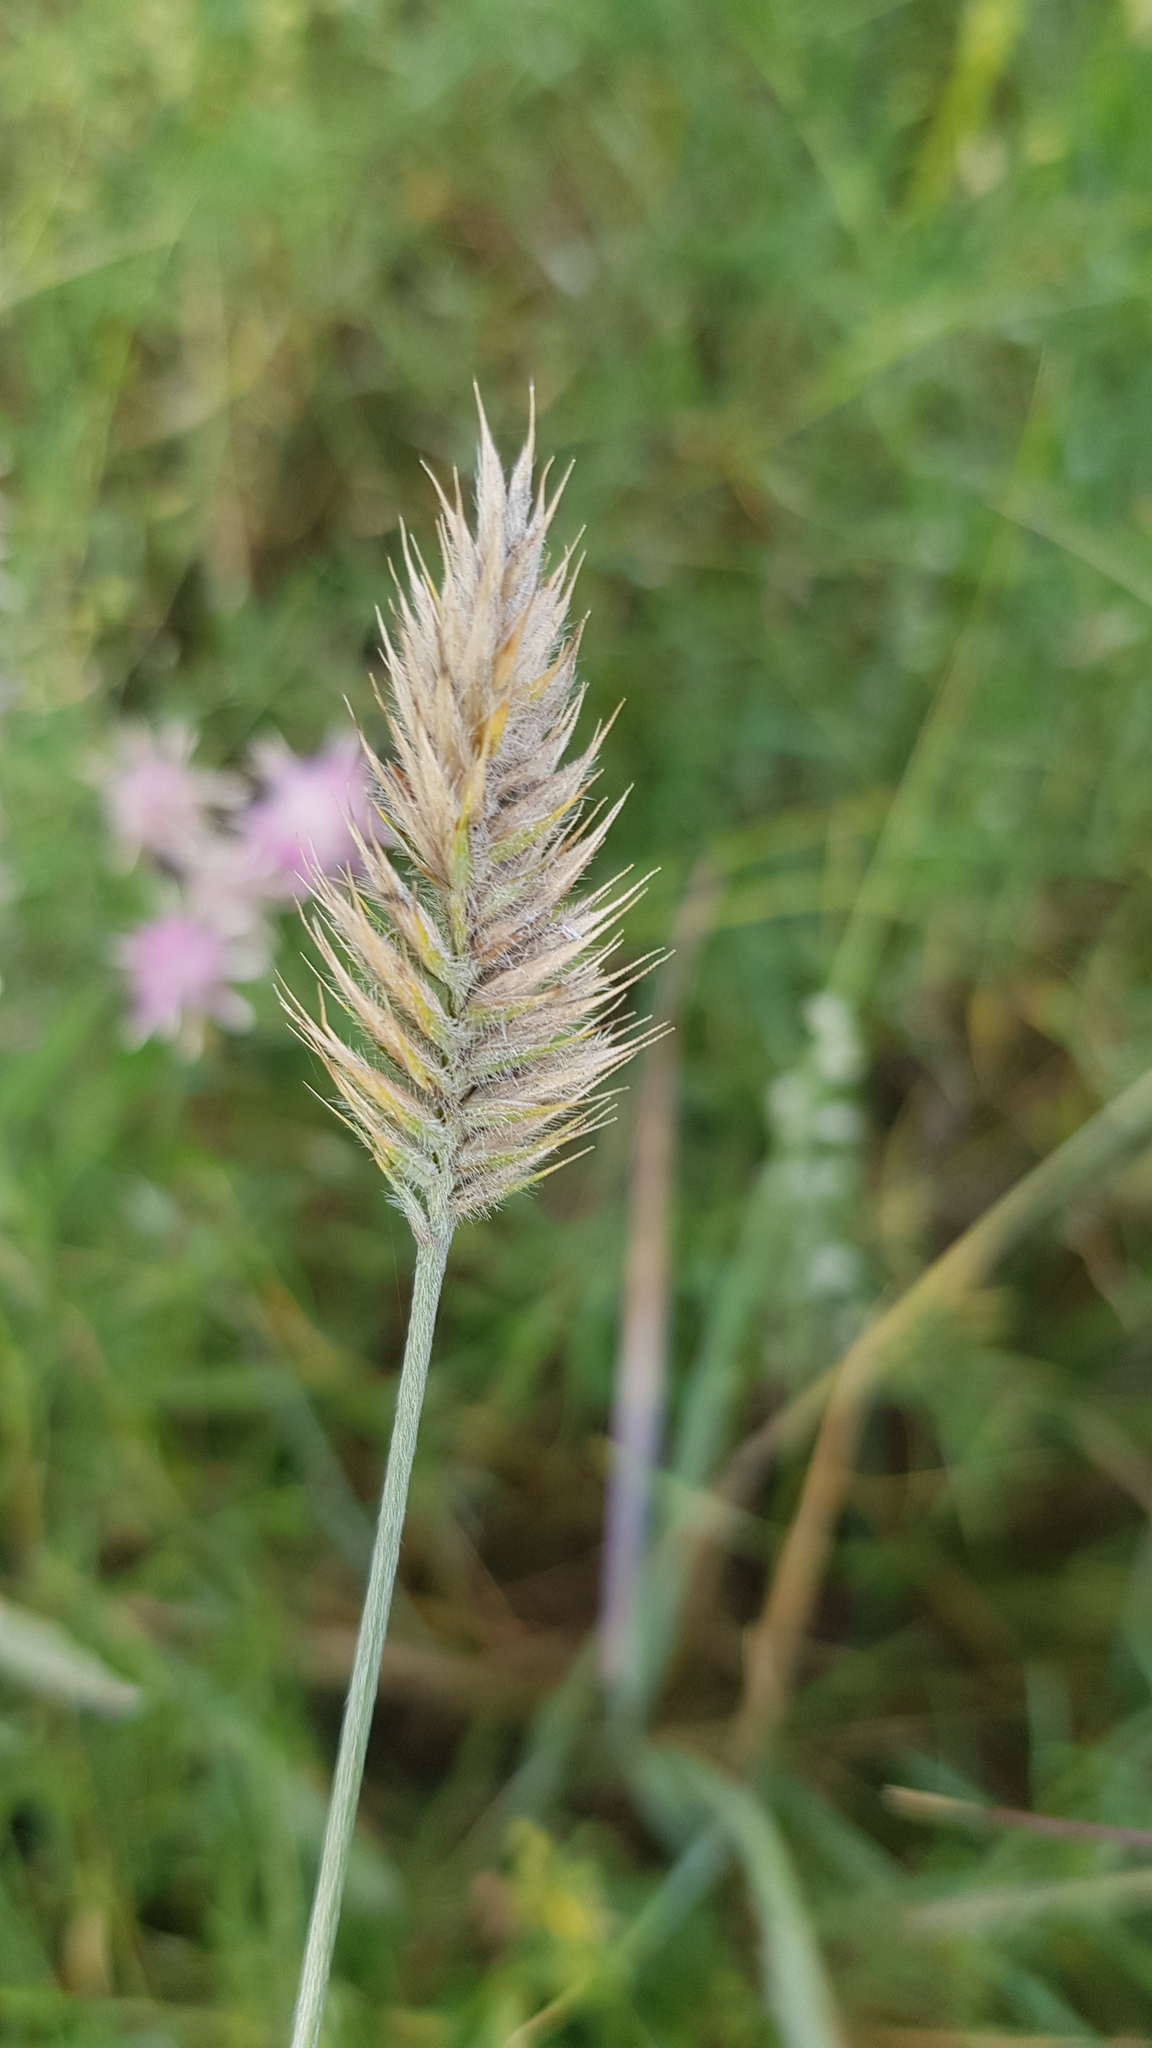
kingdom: Plantae
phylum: Tracheophyta
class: Liliopsida
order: Poales
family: Poaceae
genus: Agropyron
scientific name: Agropyron cristatum
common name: Crested wheatgrass
